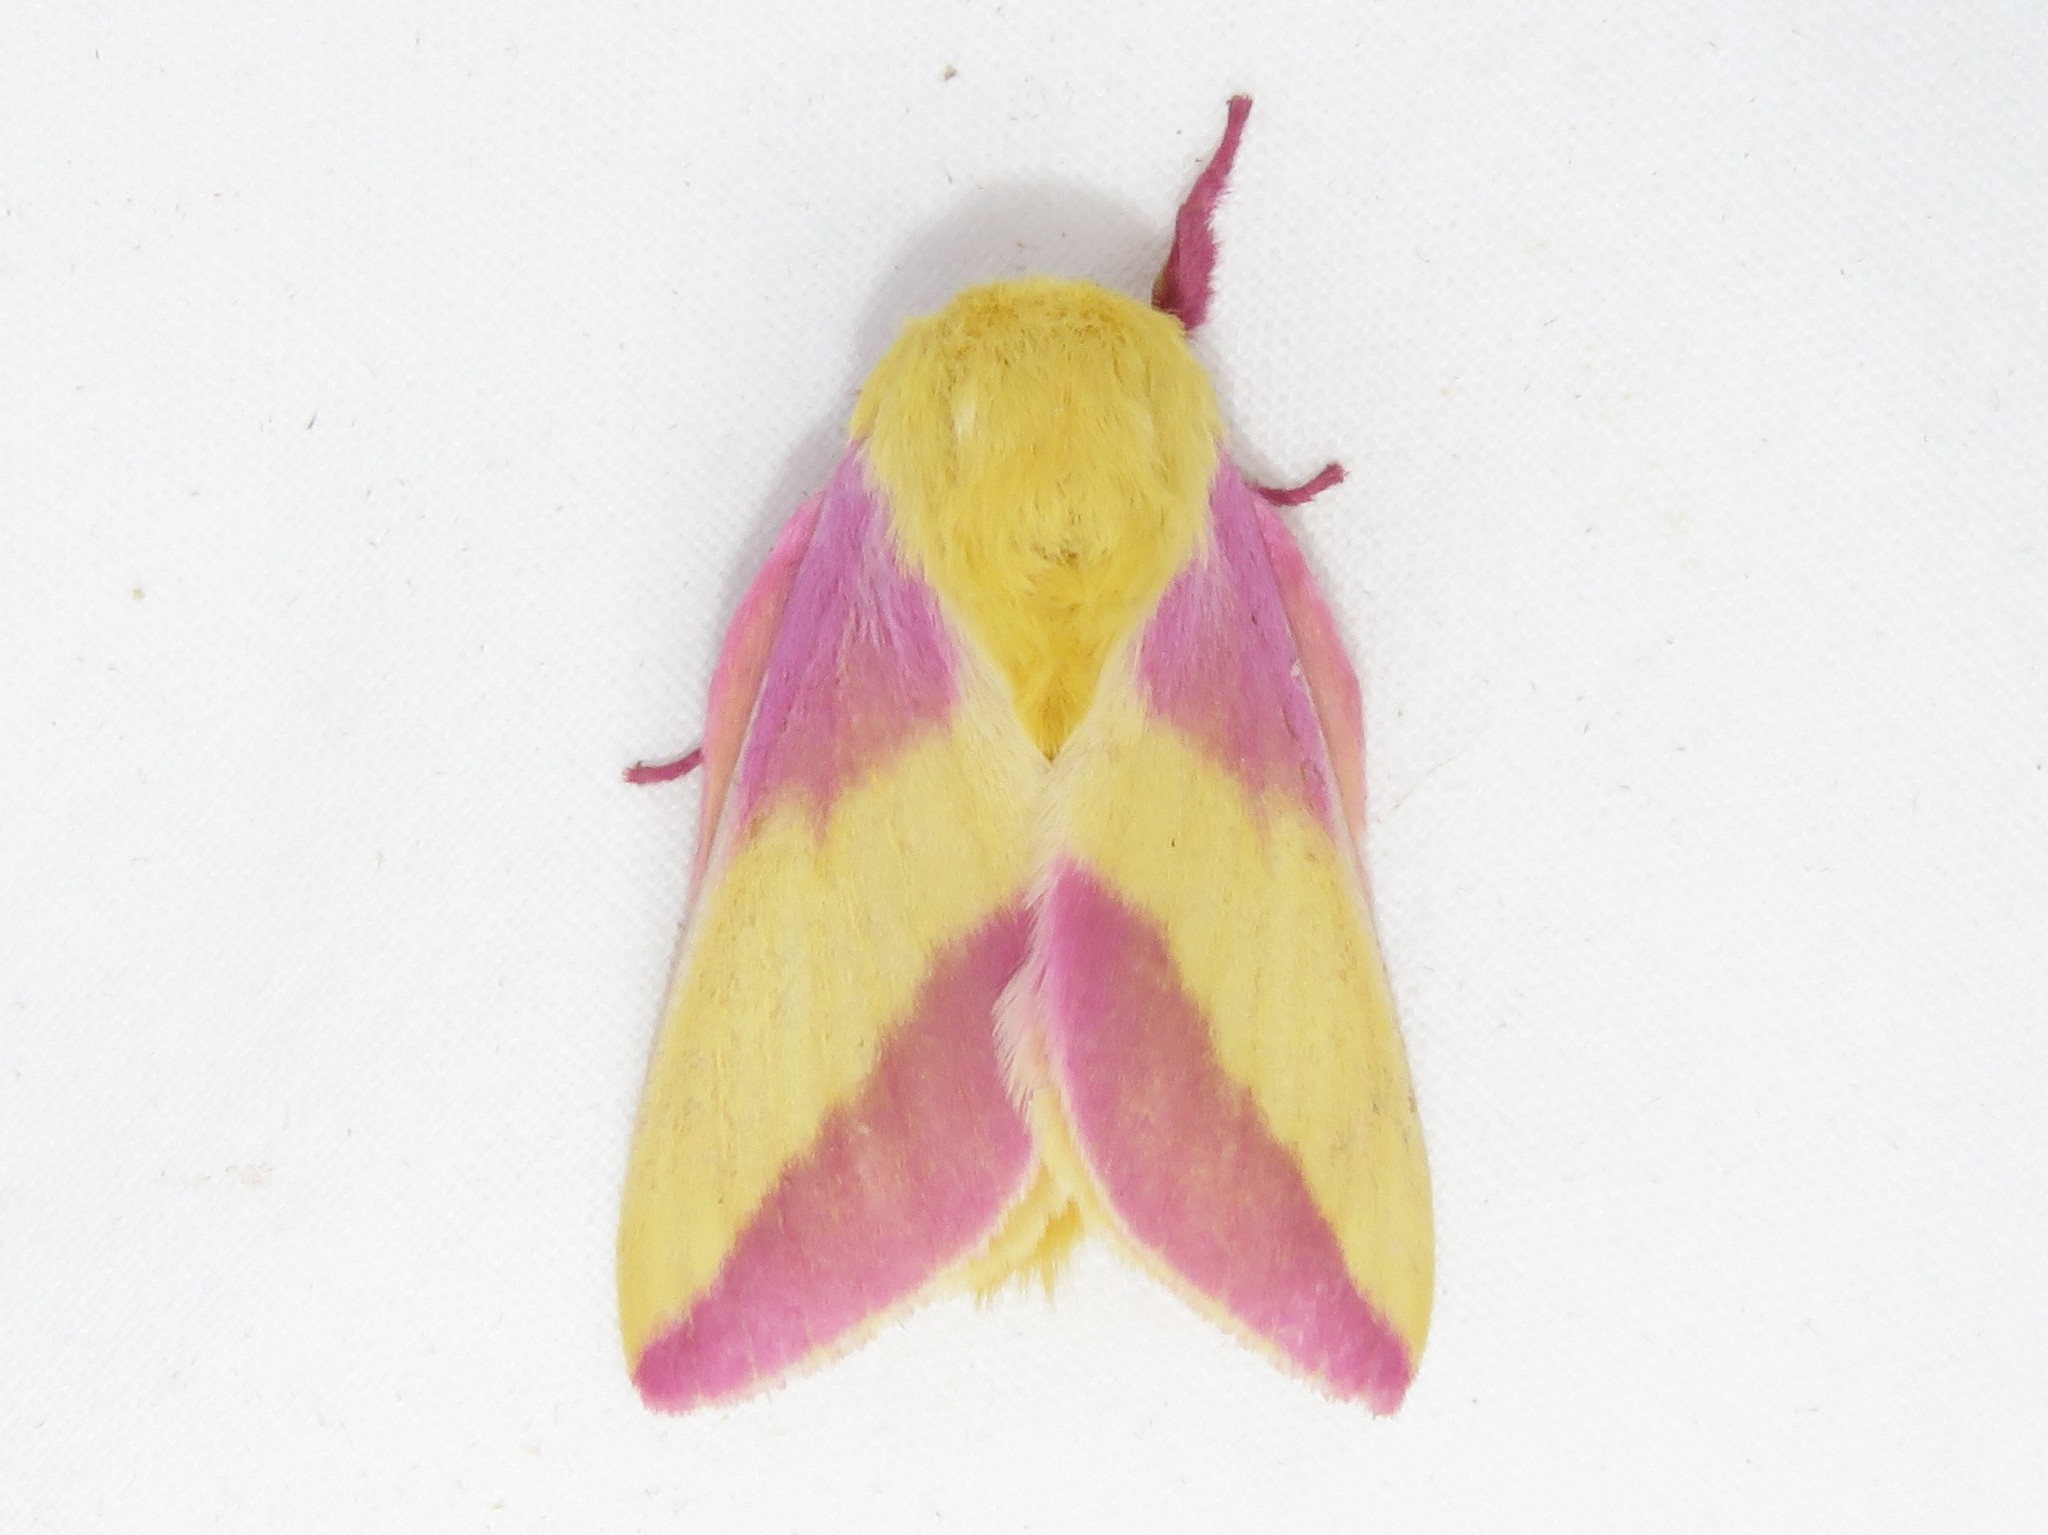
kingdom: Animalia
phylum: Arthropoda
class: Insecta
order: Lepidoptera
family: Saturniidae
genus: Dryocampa
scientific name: Dryocampa rubicunda
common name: Rosy maple moth
